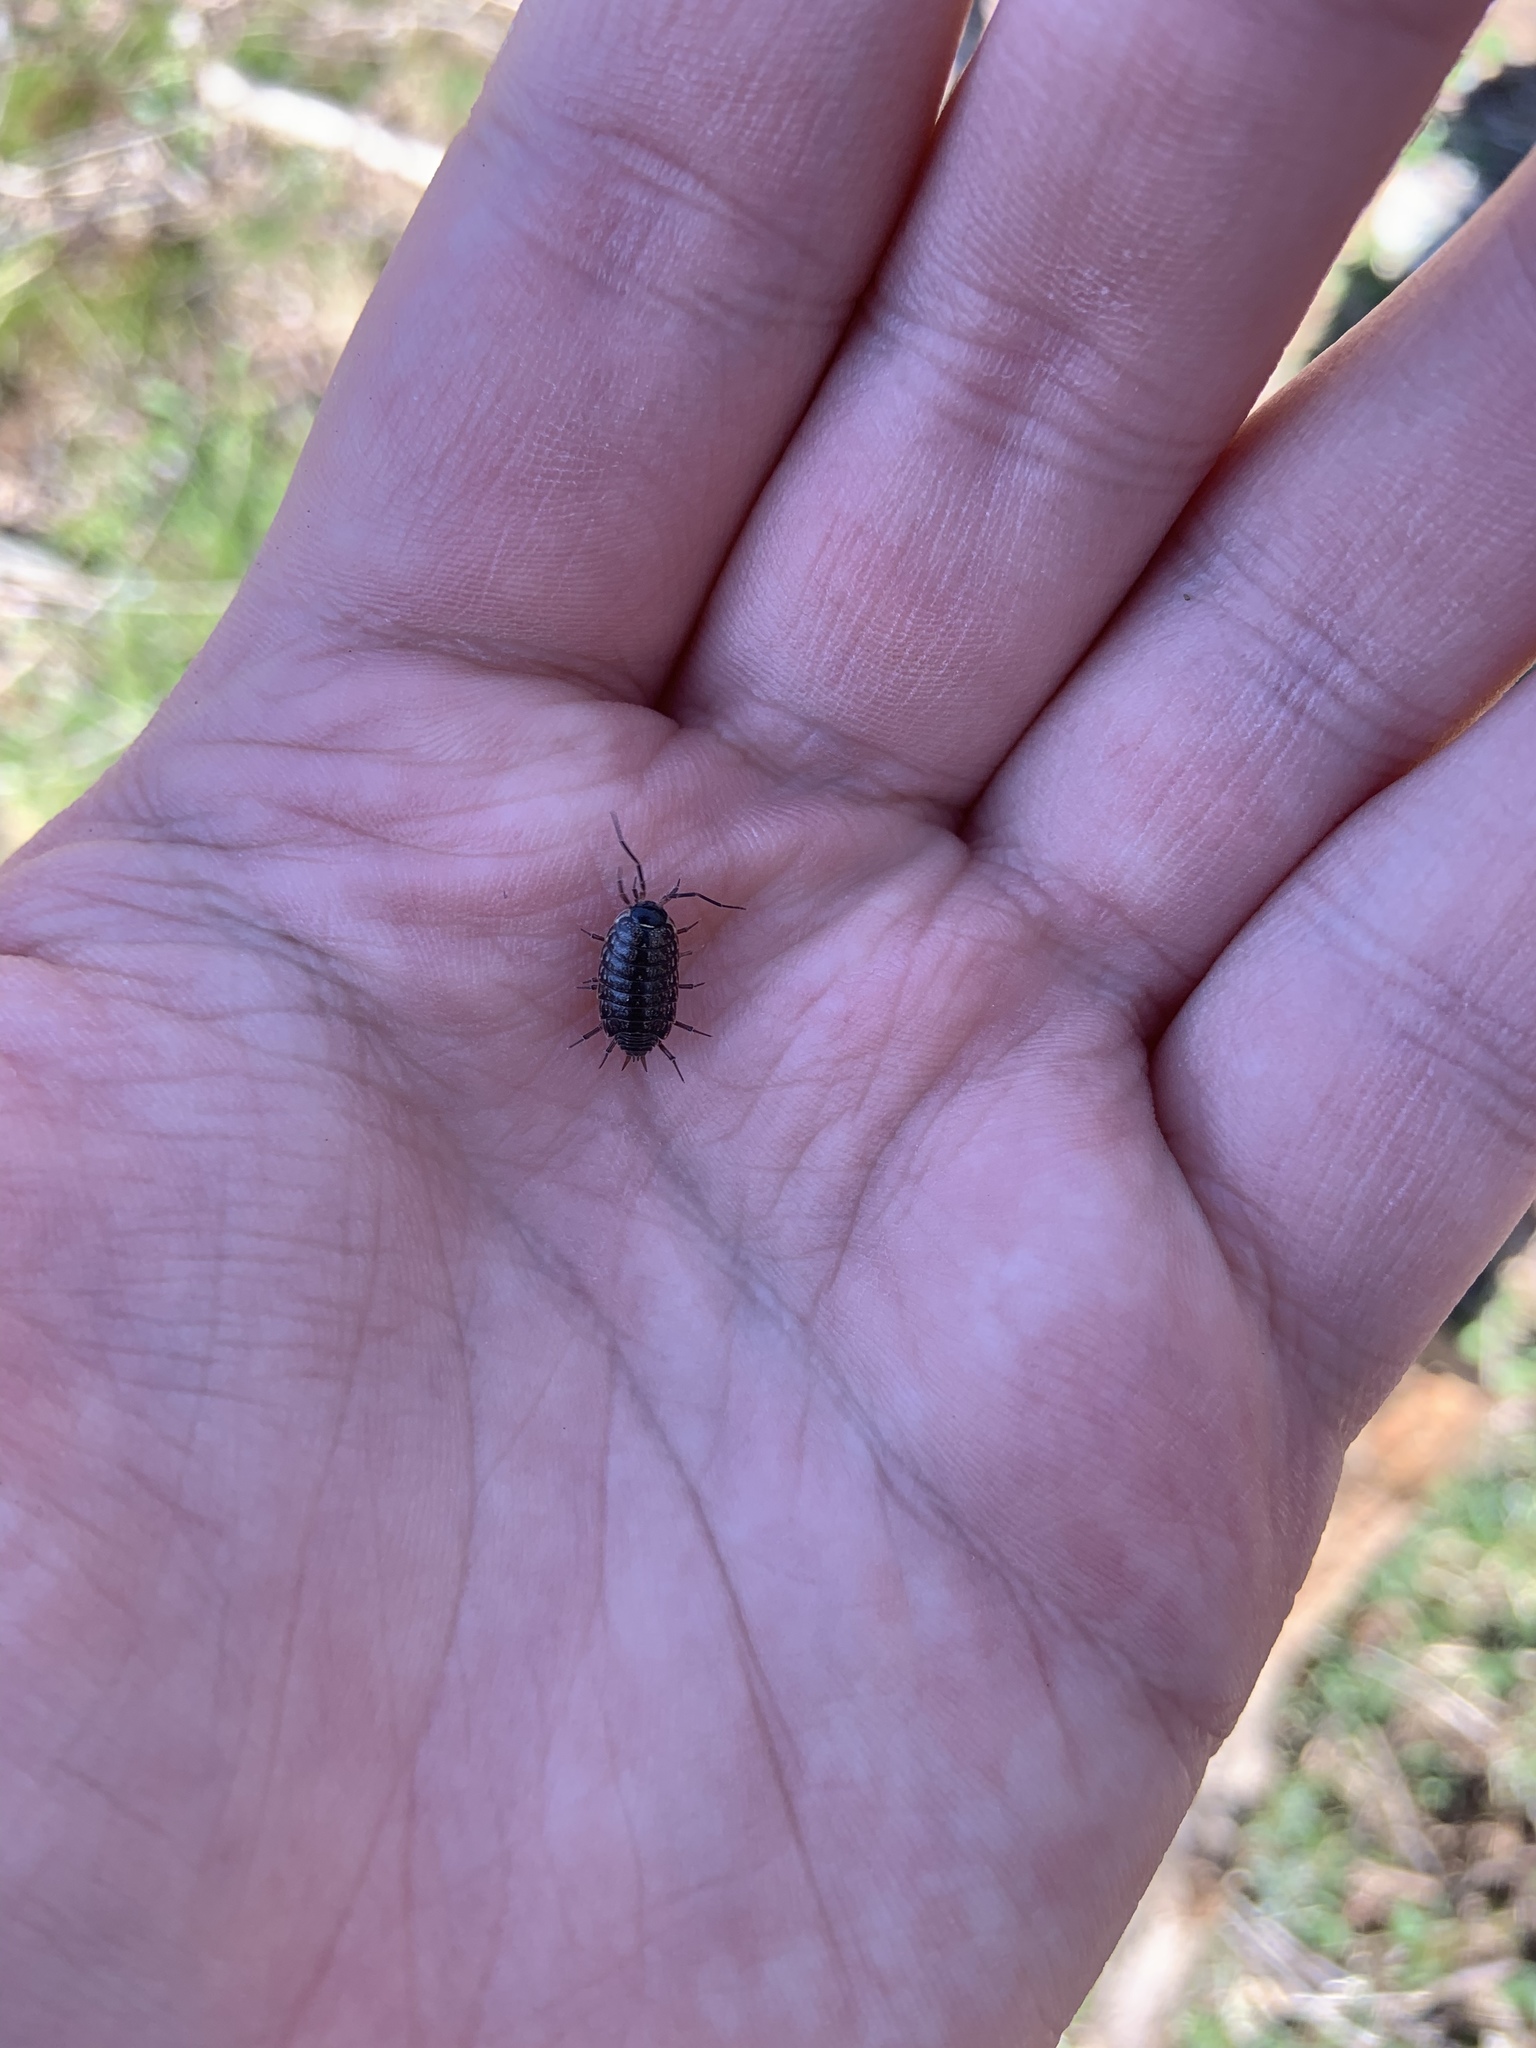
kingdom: Animalia
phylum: Arthropoda
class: Malacostraca
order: Isopoda
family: Philosciidae
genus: Philoscia
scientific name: Philoscia muscorum
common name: Common striped woodlouse
